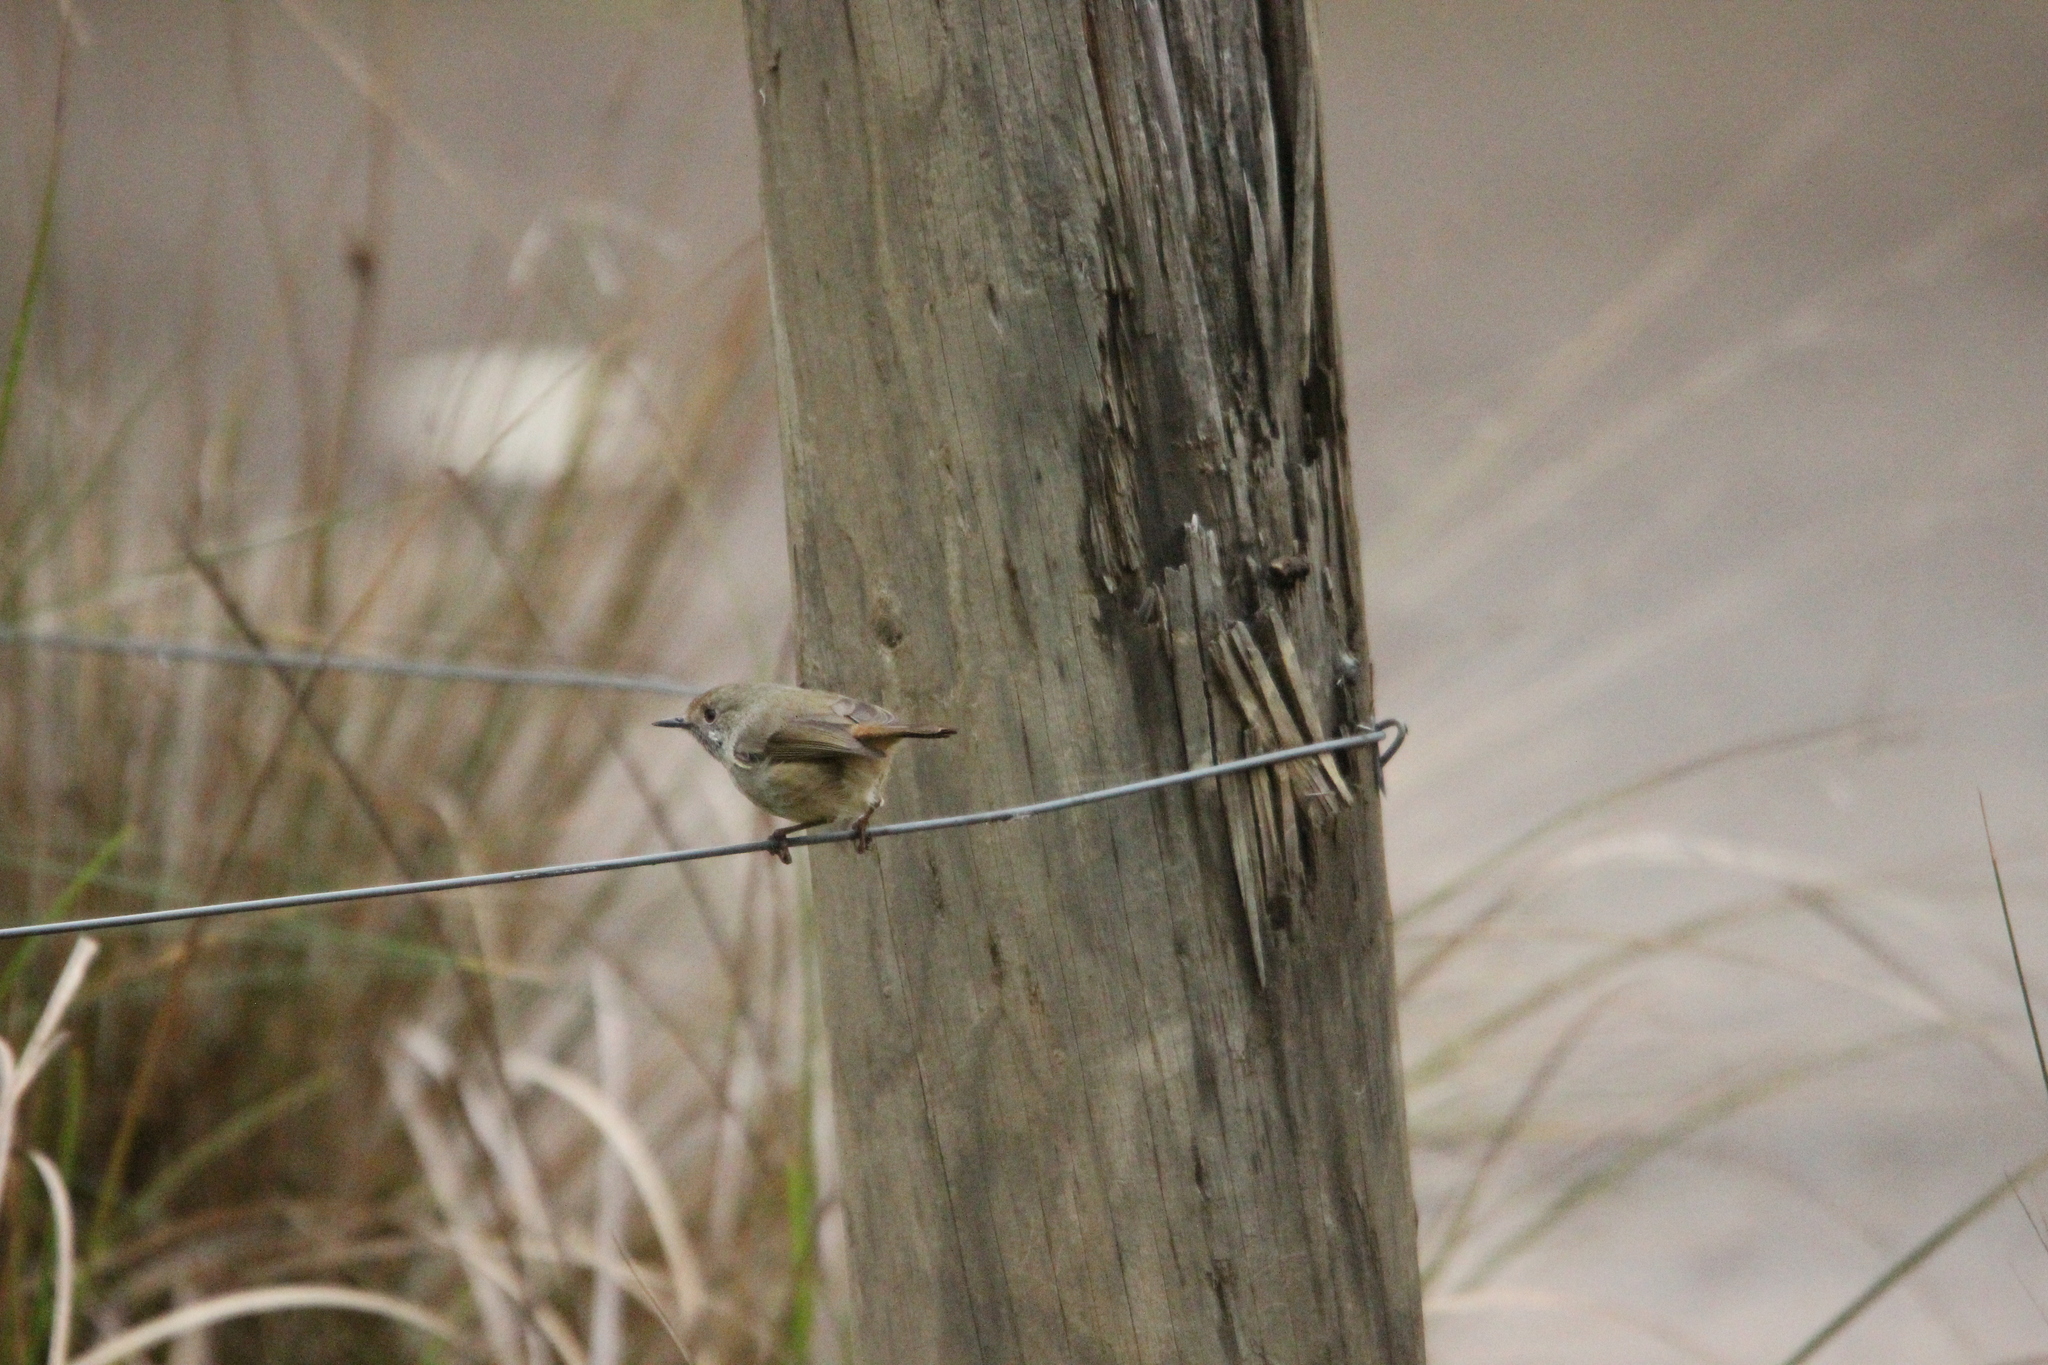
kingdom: Animalia
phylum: Chordata
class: Aves
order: Passeriformes
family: Acanthizidae
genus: Acanthiza
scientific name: Acanthiza pusilla
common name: Brown thornbill
